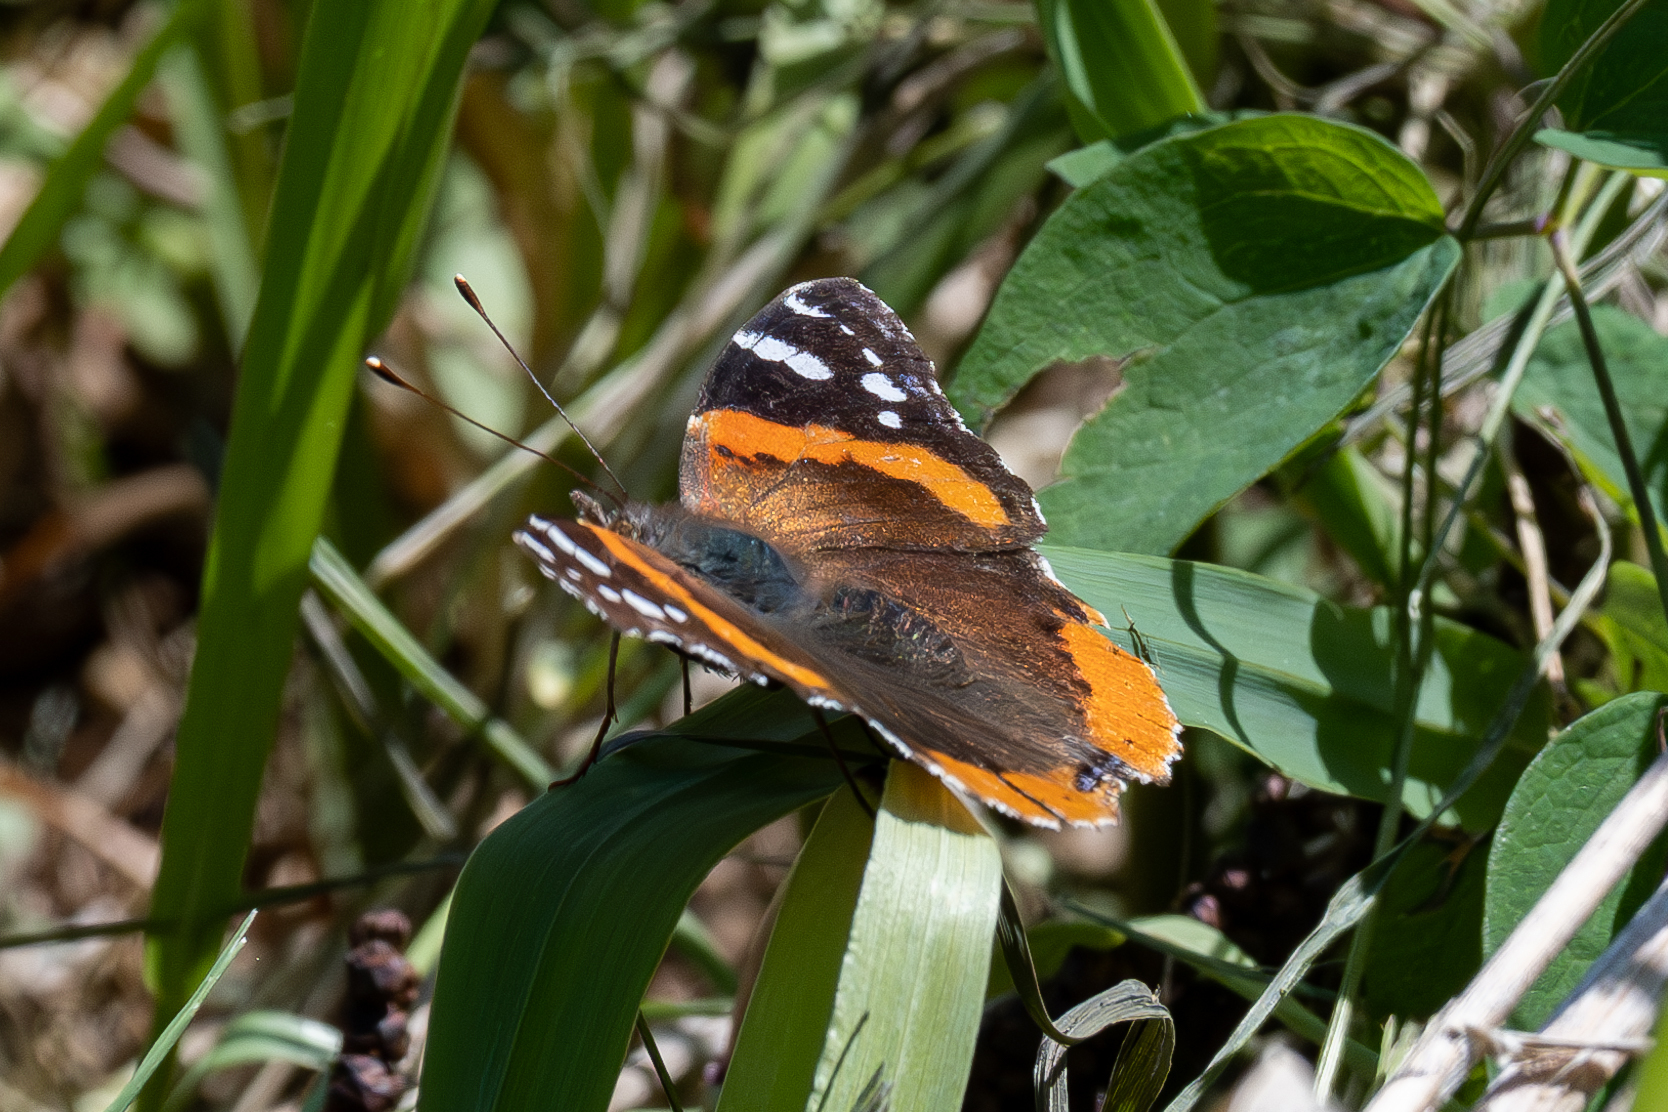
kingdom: Animalia
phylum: Arthropoda
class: Insecta
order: Lepidoptera
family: Nymphalidae
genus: Vanessa
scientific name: Vanessa atalanta
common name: Red admiral
